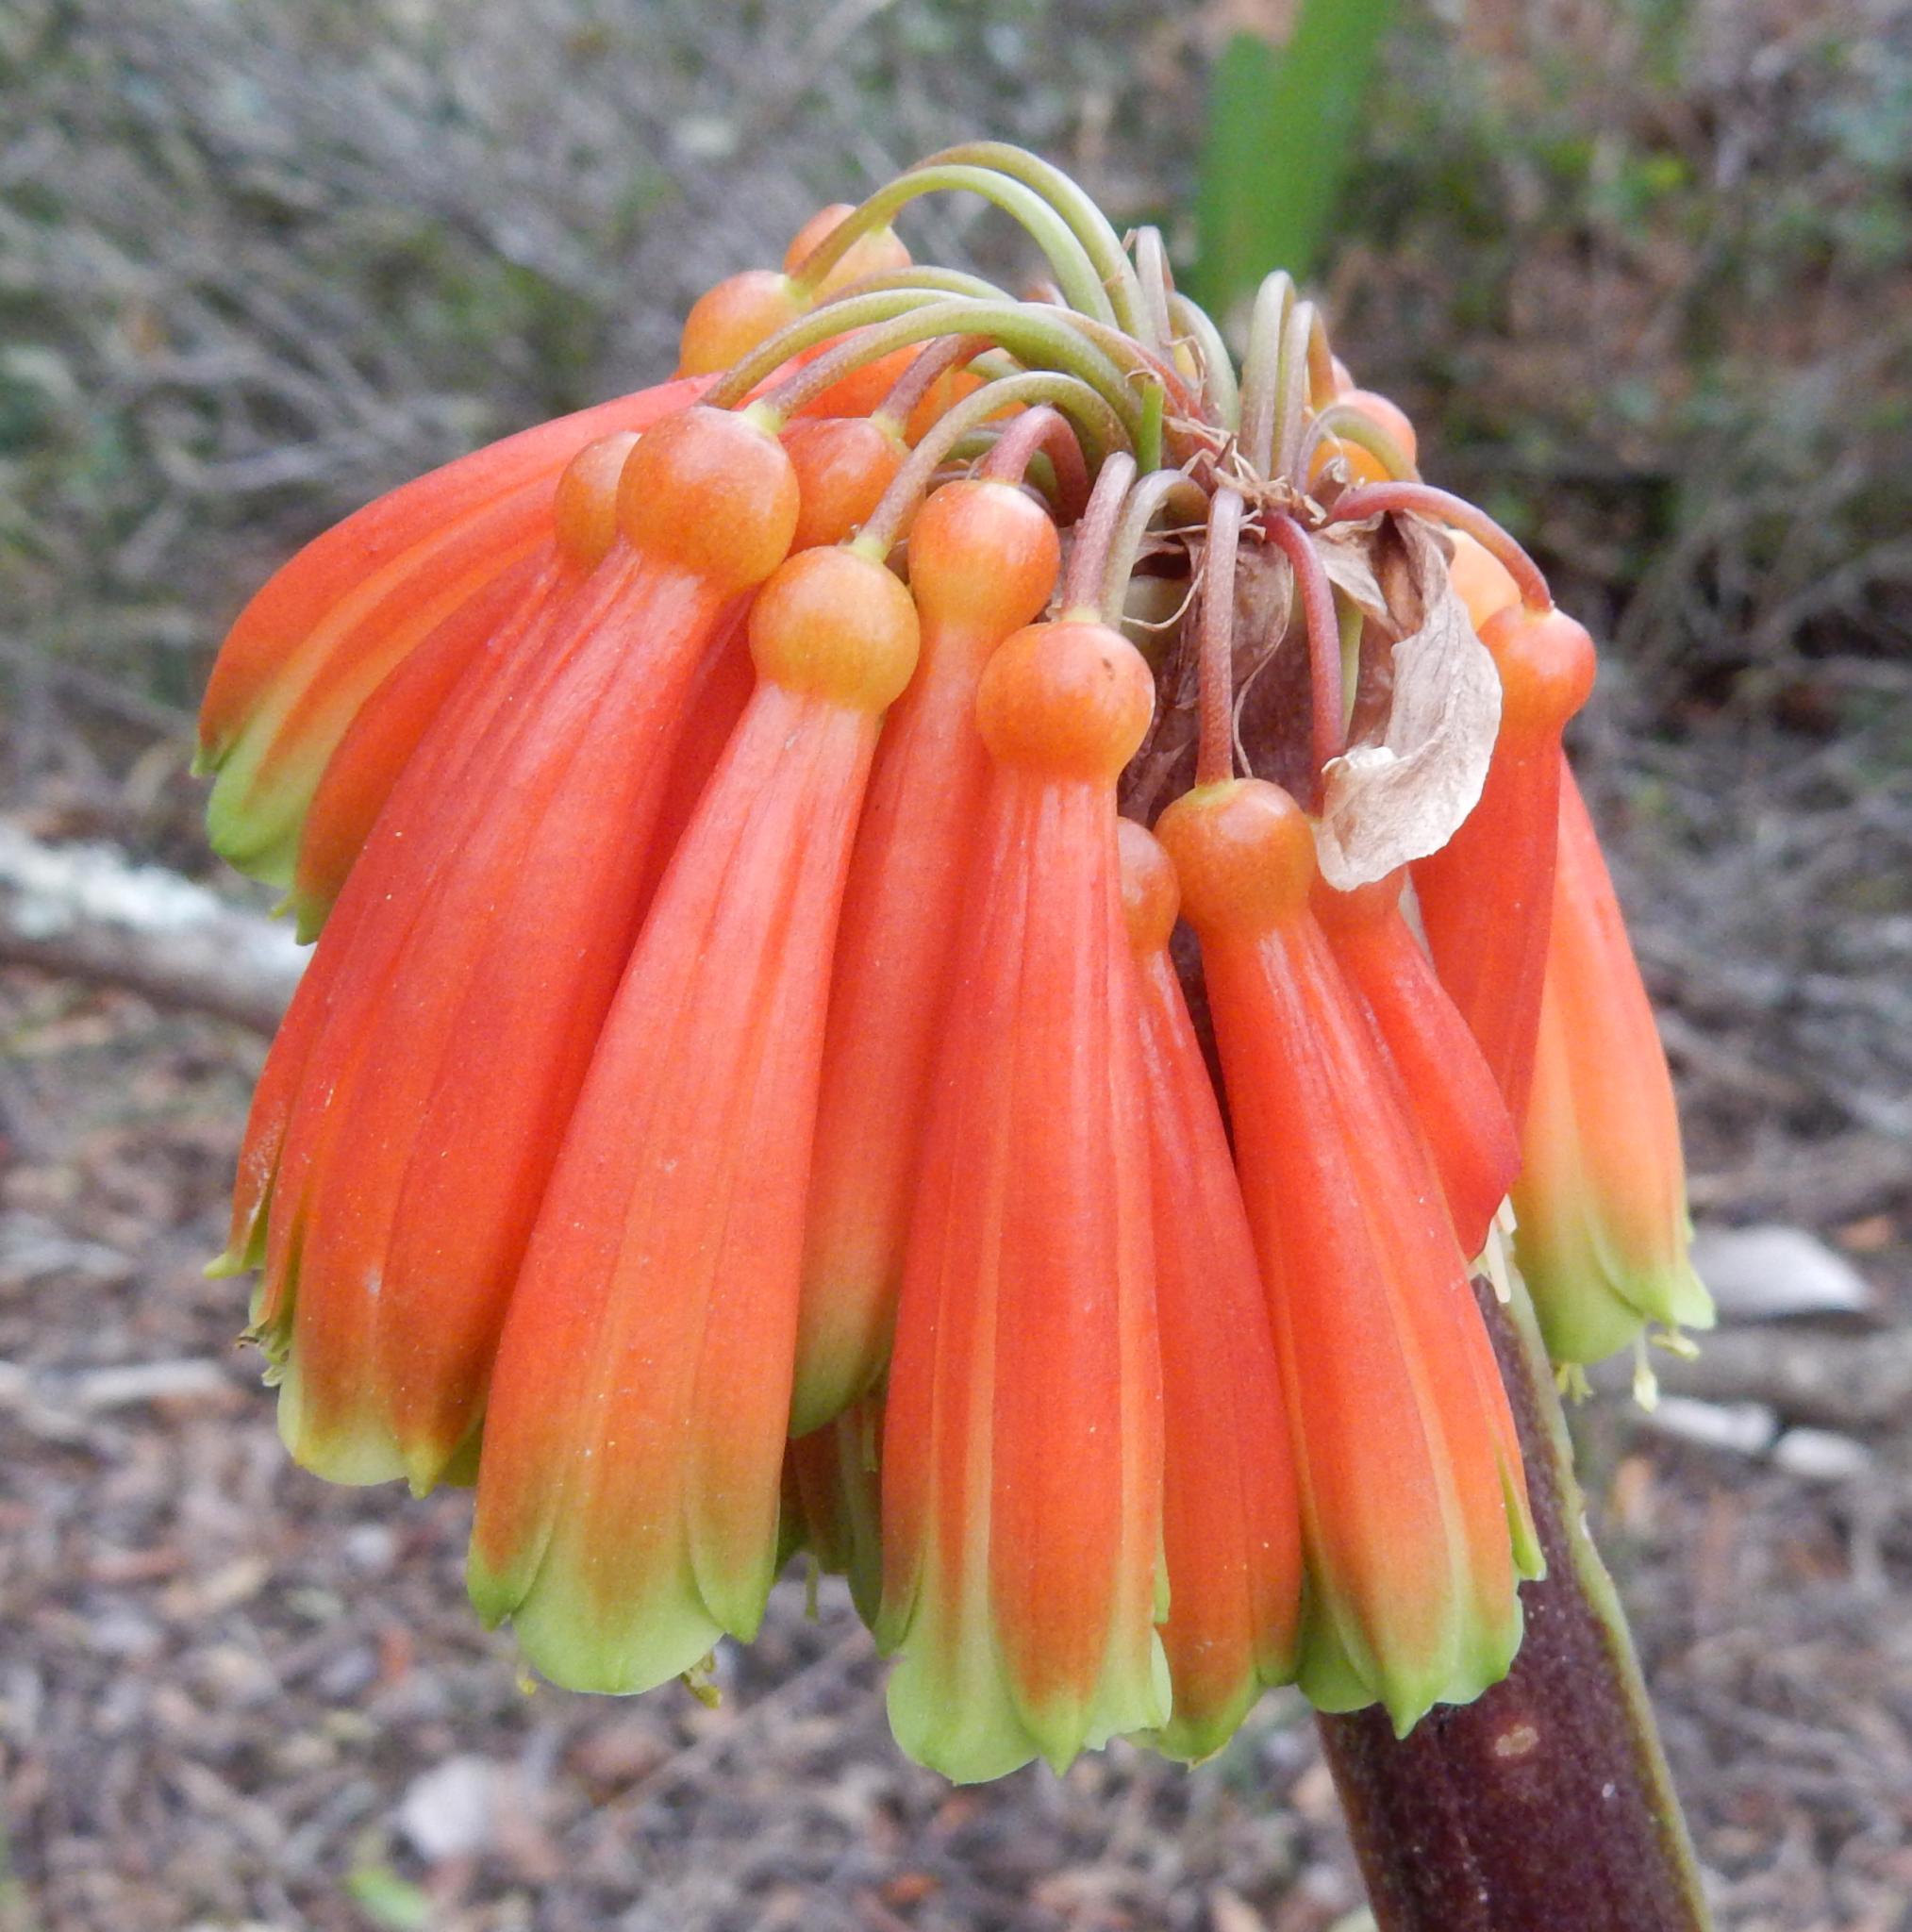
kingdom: Plantae
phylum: Tracheophyta
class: Liliopsida
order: Asparagales
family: Amaryllidaceae
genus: Clivia
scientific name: Clivia nobilis
